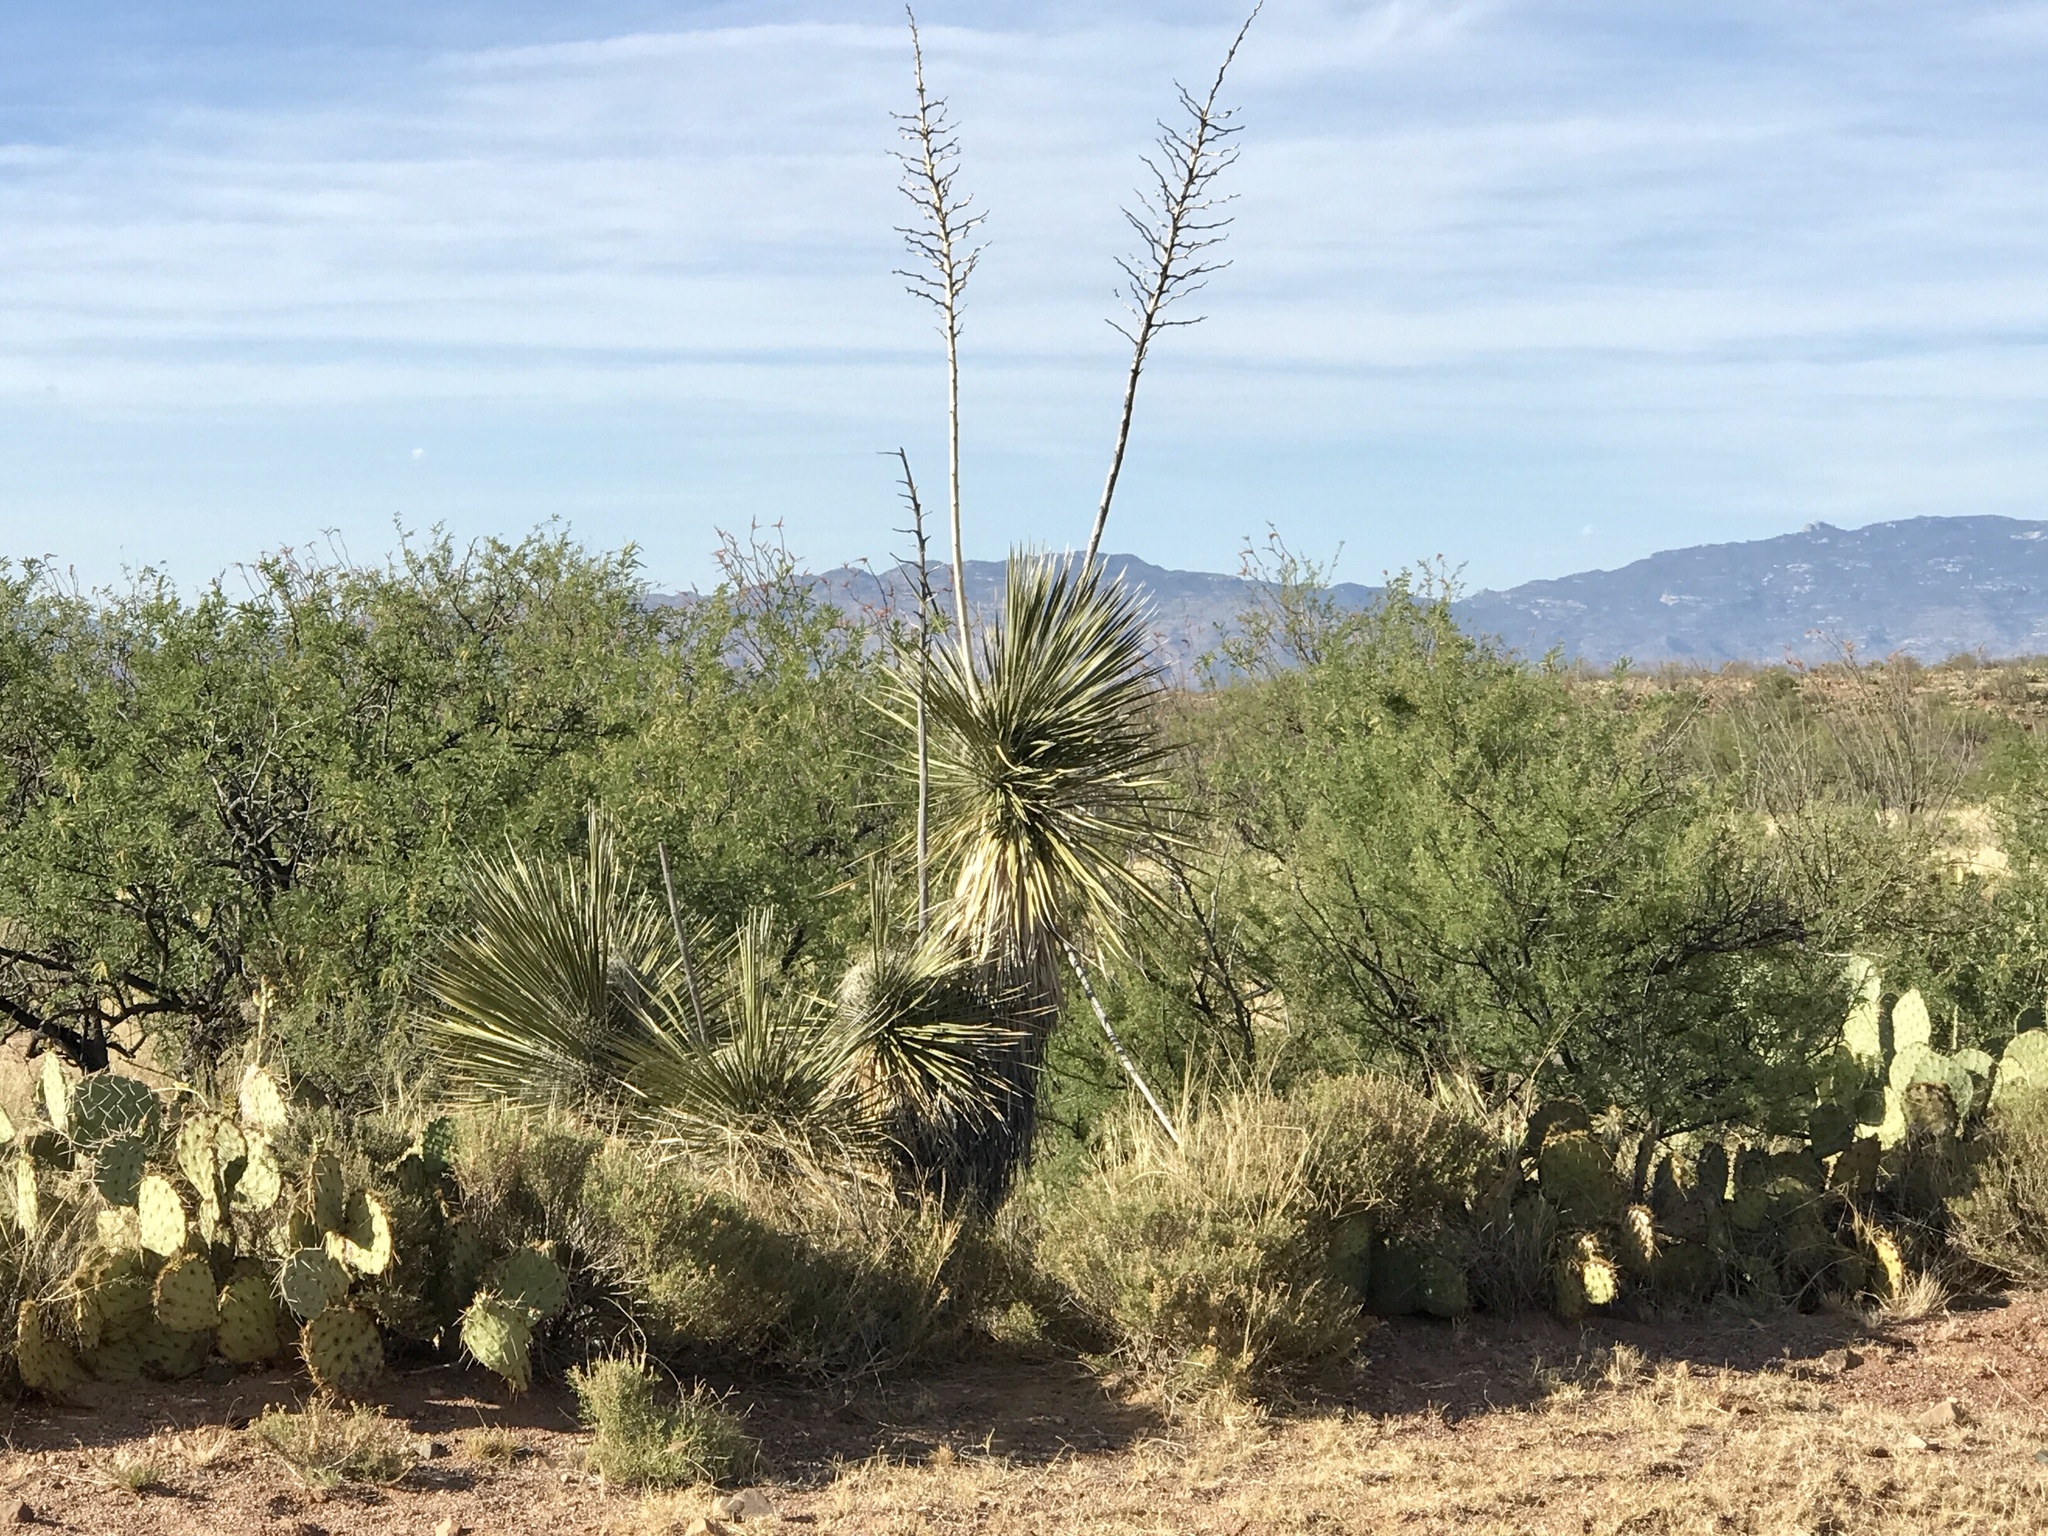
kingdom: Plantae
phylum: Tracheophyta
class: Liliopsida
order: Asparagales
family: Asparagaceae
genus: Yucca
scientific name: Yucca elata
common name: Palmella
